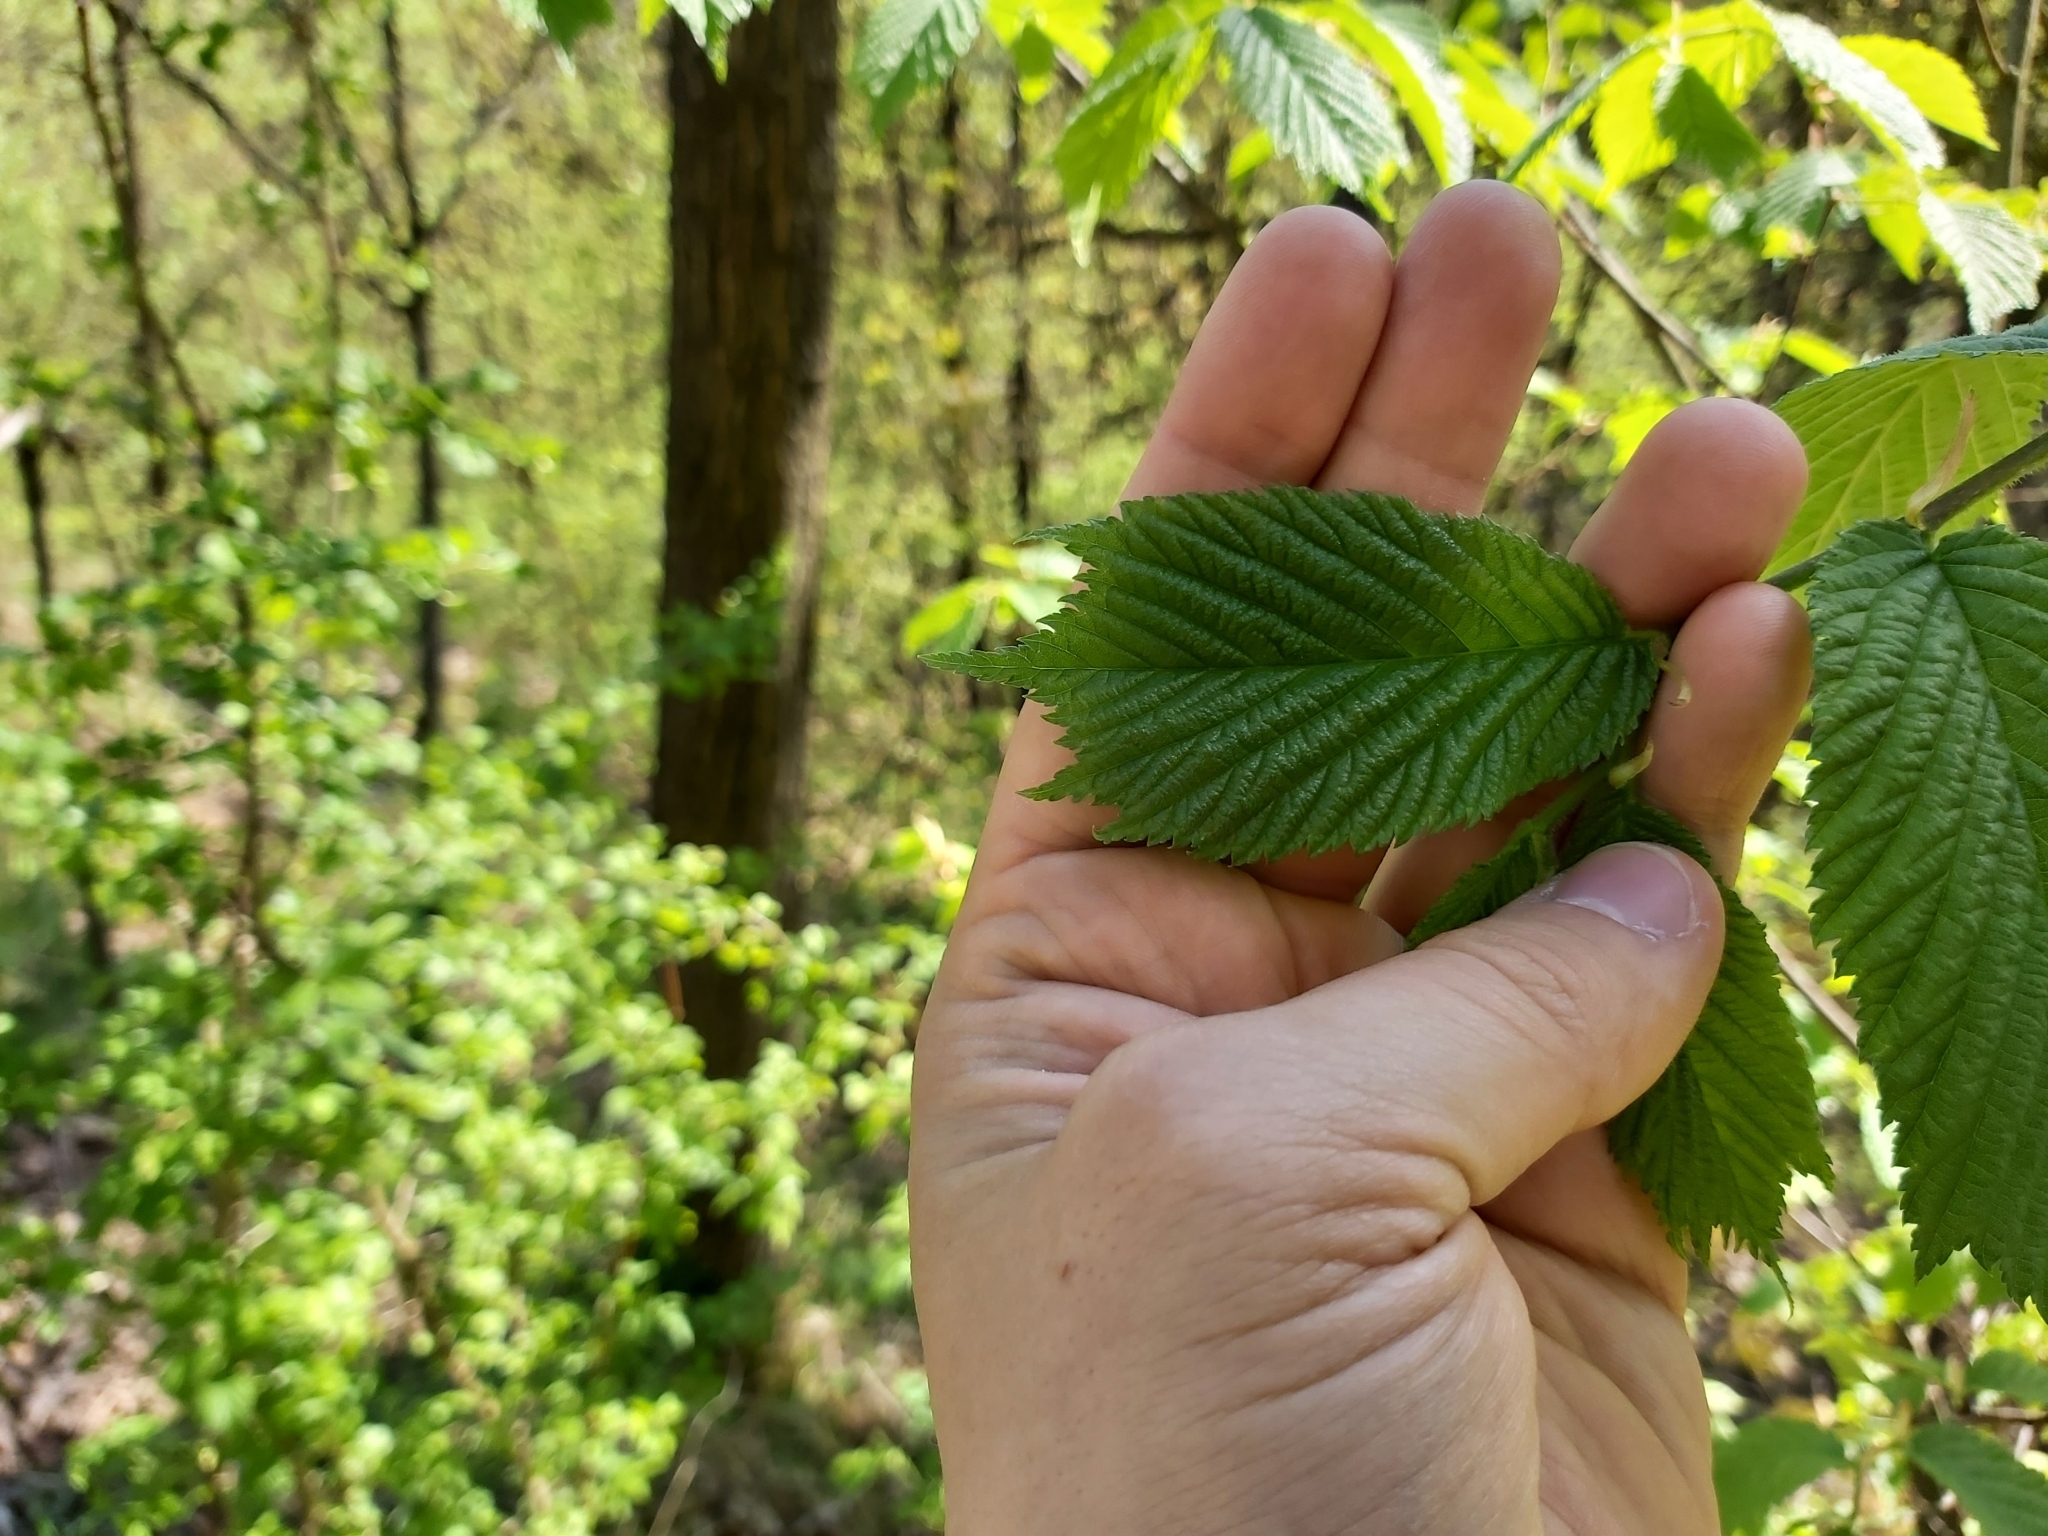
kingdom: Plantae
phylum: Tracheophyta
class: Magnoliopsida
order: Rosales
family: Ulmaceae
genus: Ulmus
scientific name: Ulmus glabra
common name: Wych elm
